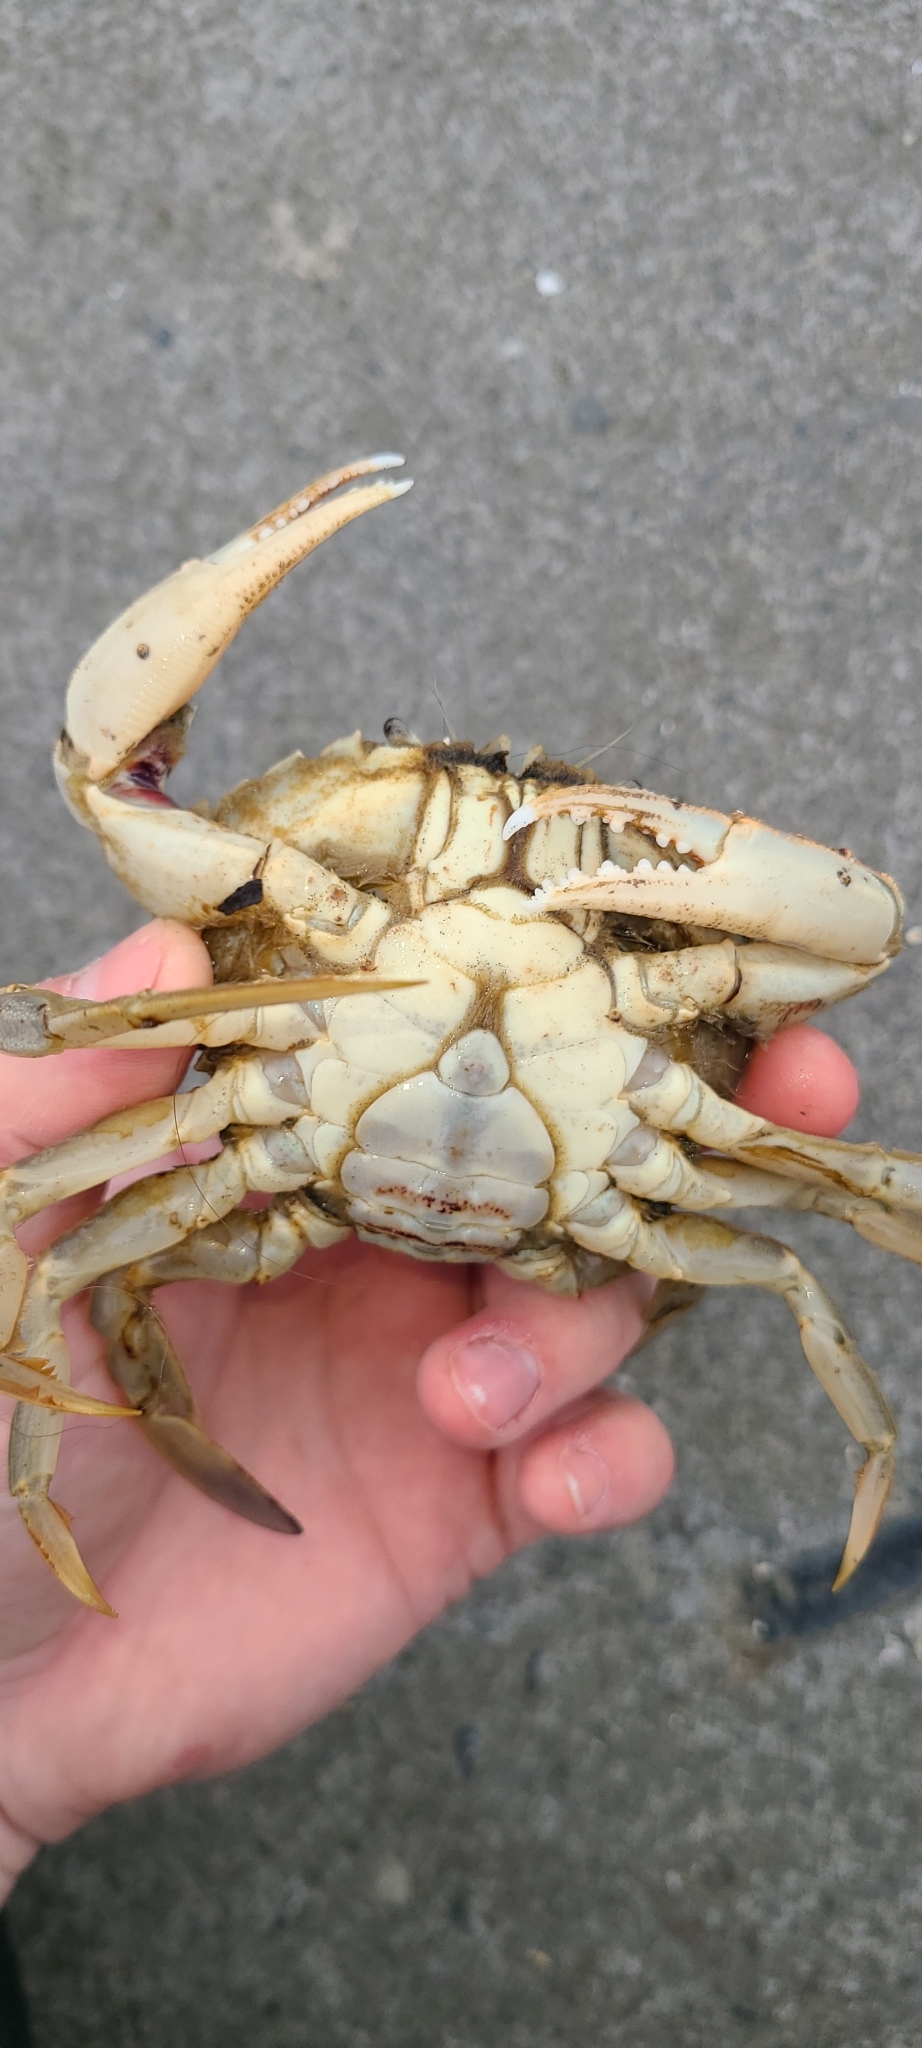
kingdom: Animalia
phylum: Arthropoda
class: Malacostraca
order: Decapoda
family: Ovalipidae
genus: Ovalipes
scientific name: Ovalipes catharus
